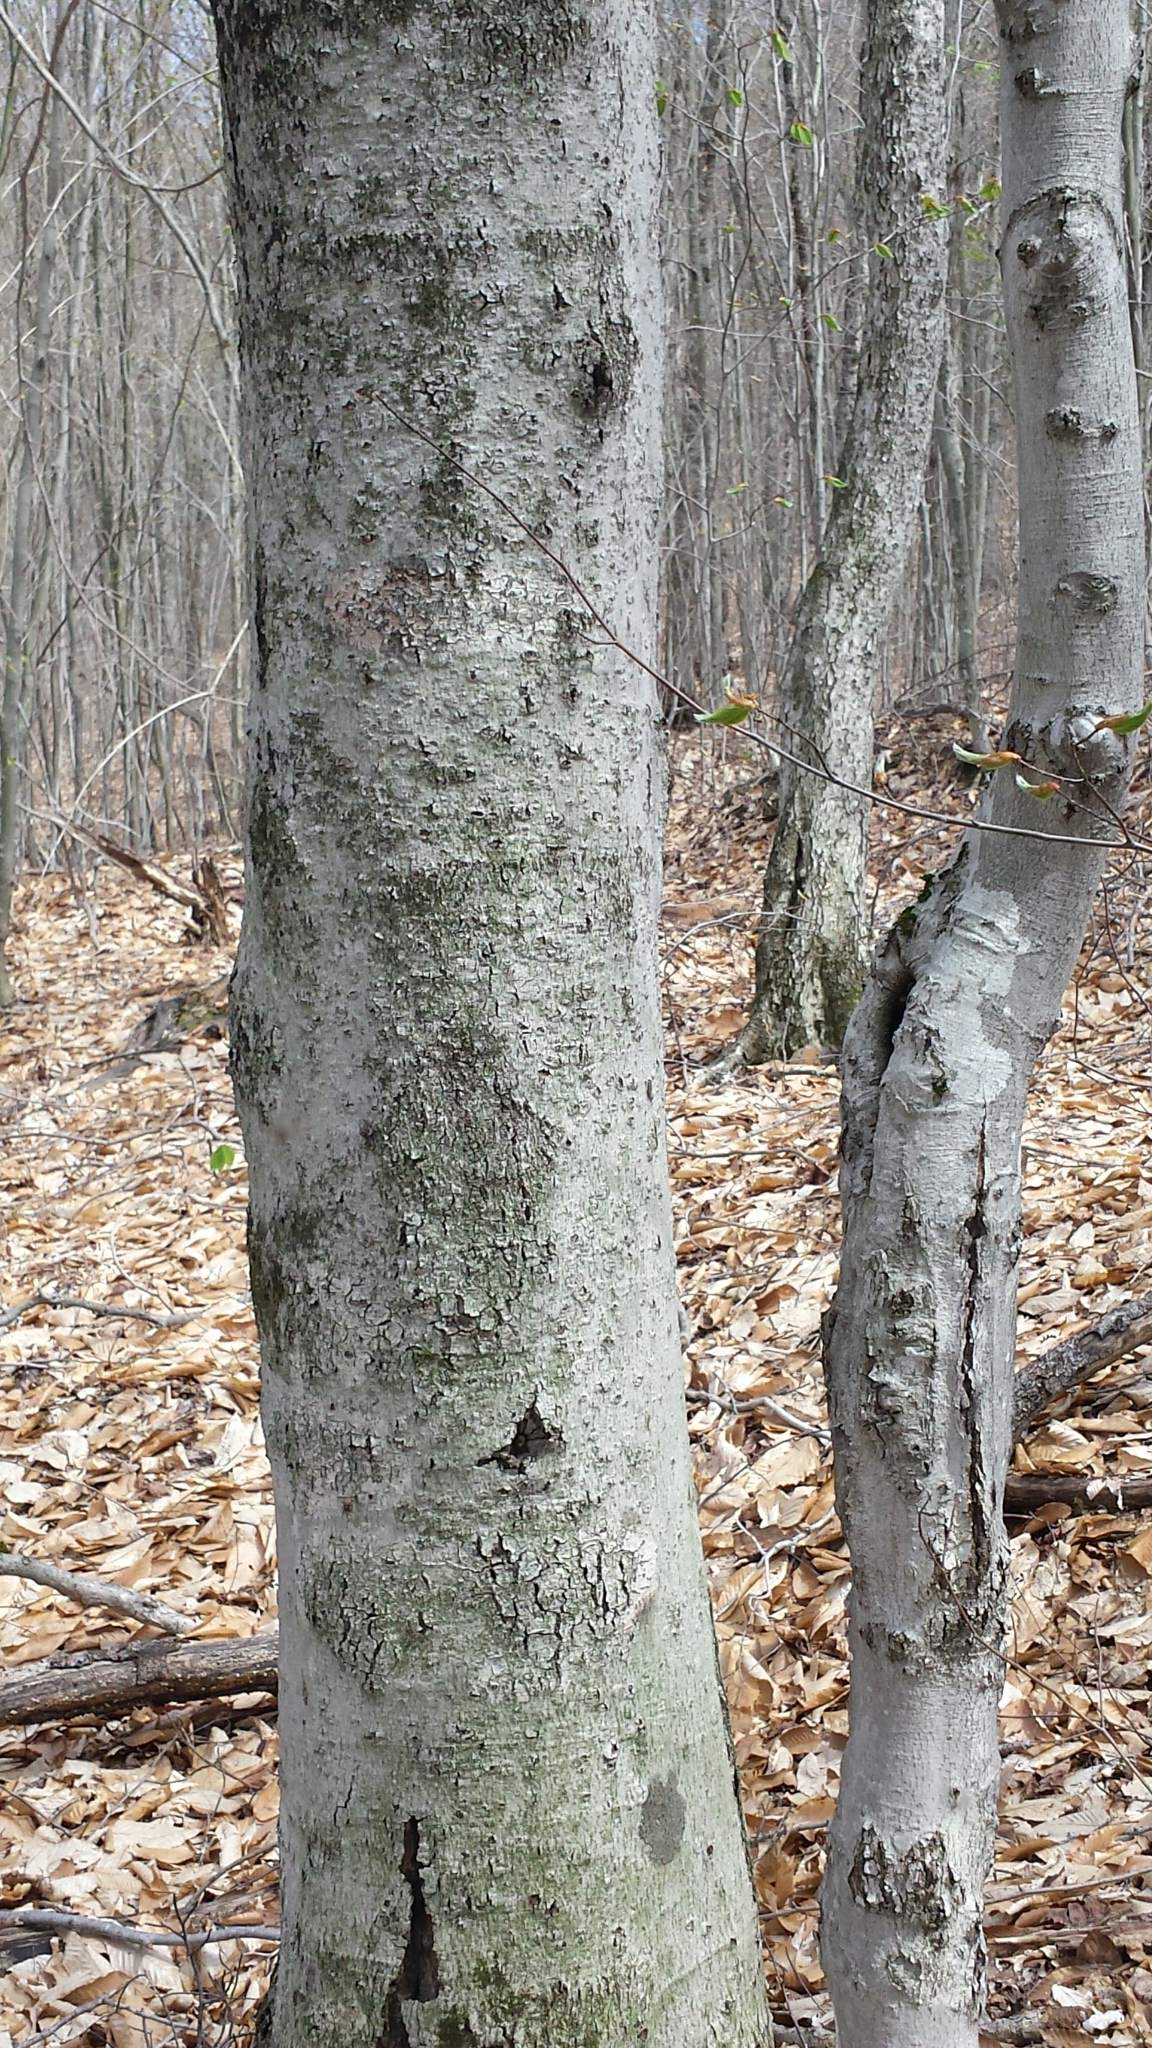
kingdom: Plantae
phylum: Tracheophyta
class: Magnoliopsida
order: Fagales
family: Fagaceae
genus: Fagus
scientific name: Fagus grandifolia
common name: American beech
